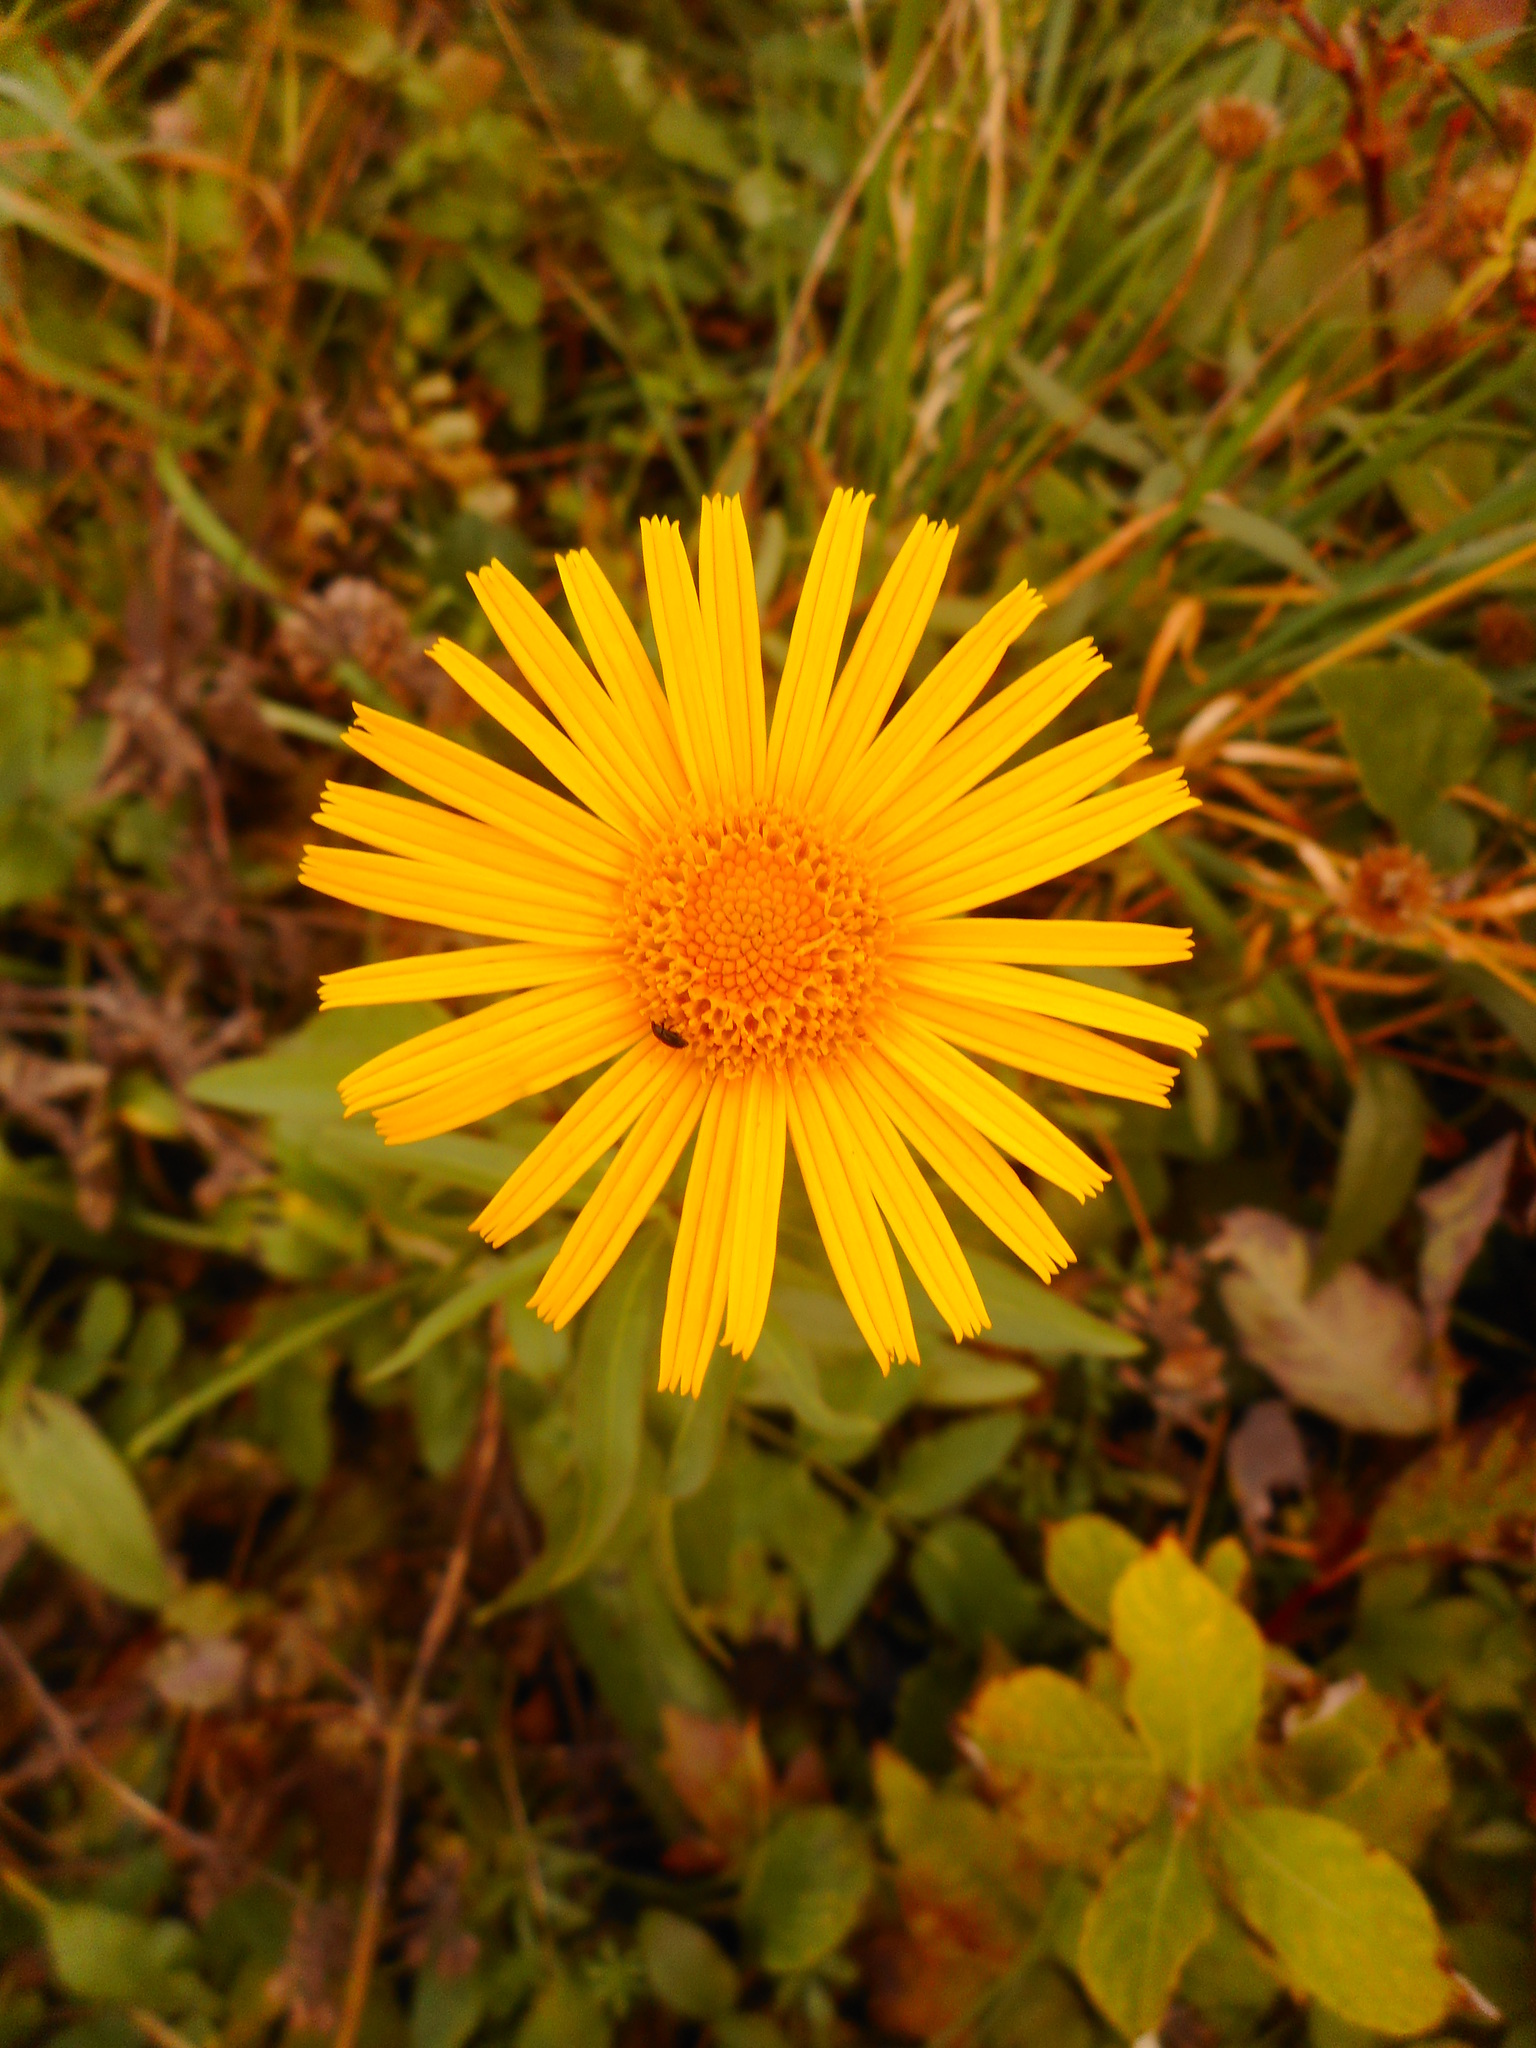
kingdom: Plantae
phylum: Tracheophyta
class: Magnoliopsida
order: Asterales
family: Asteraceae
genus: Buphthalmum
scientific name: Buphthalmum salicifolium
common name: Willow-leaved yellow-oxeye
